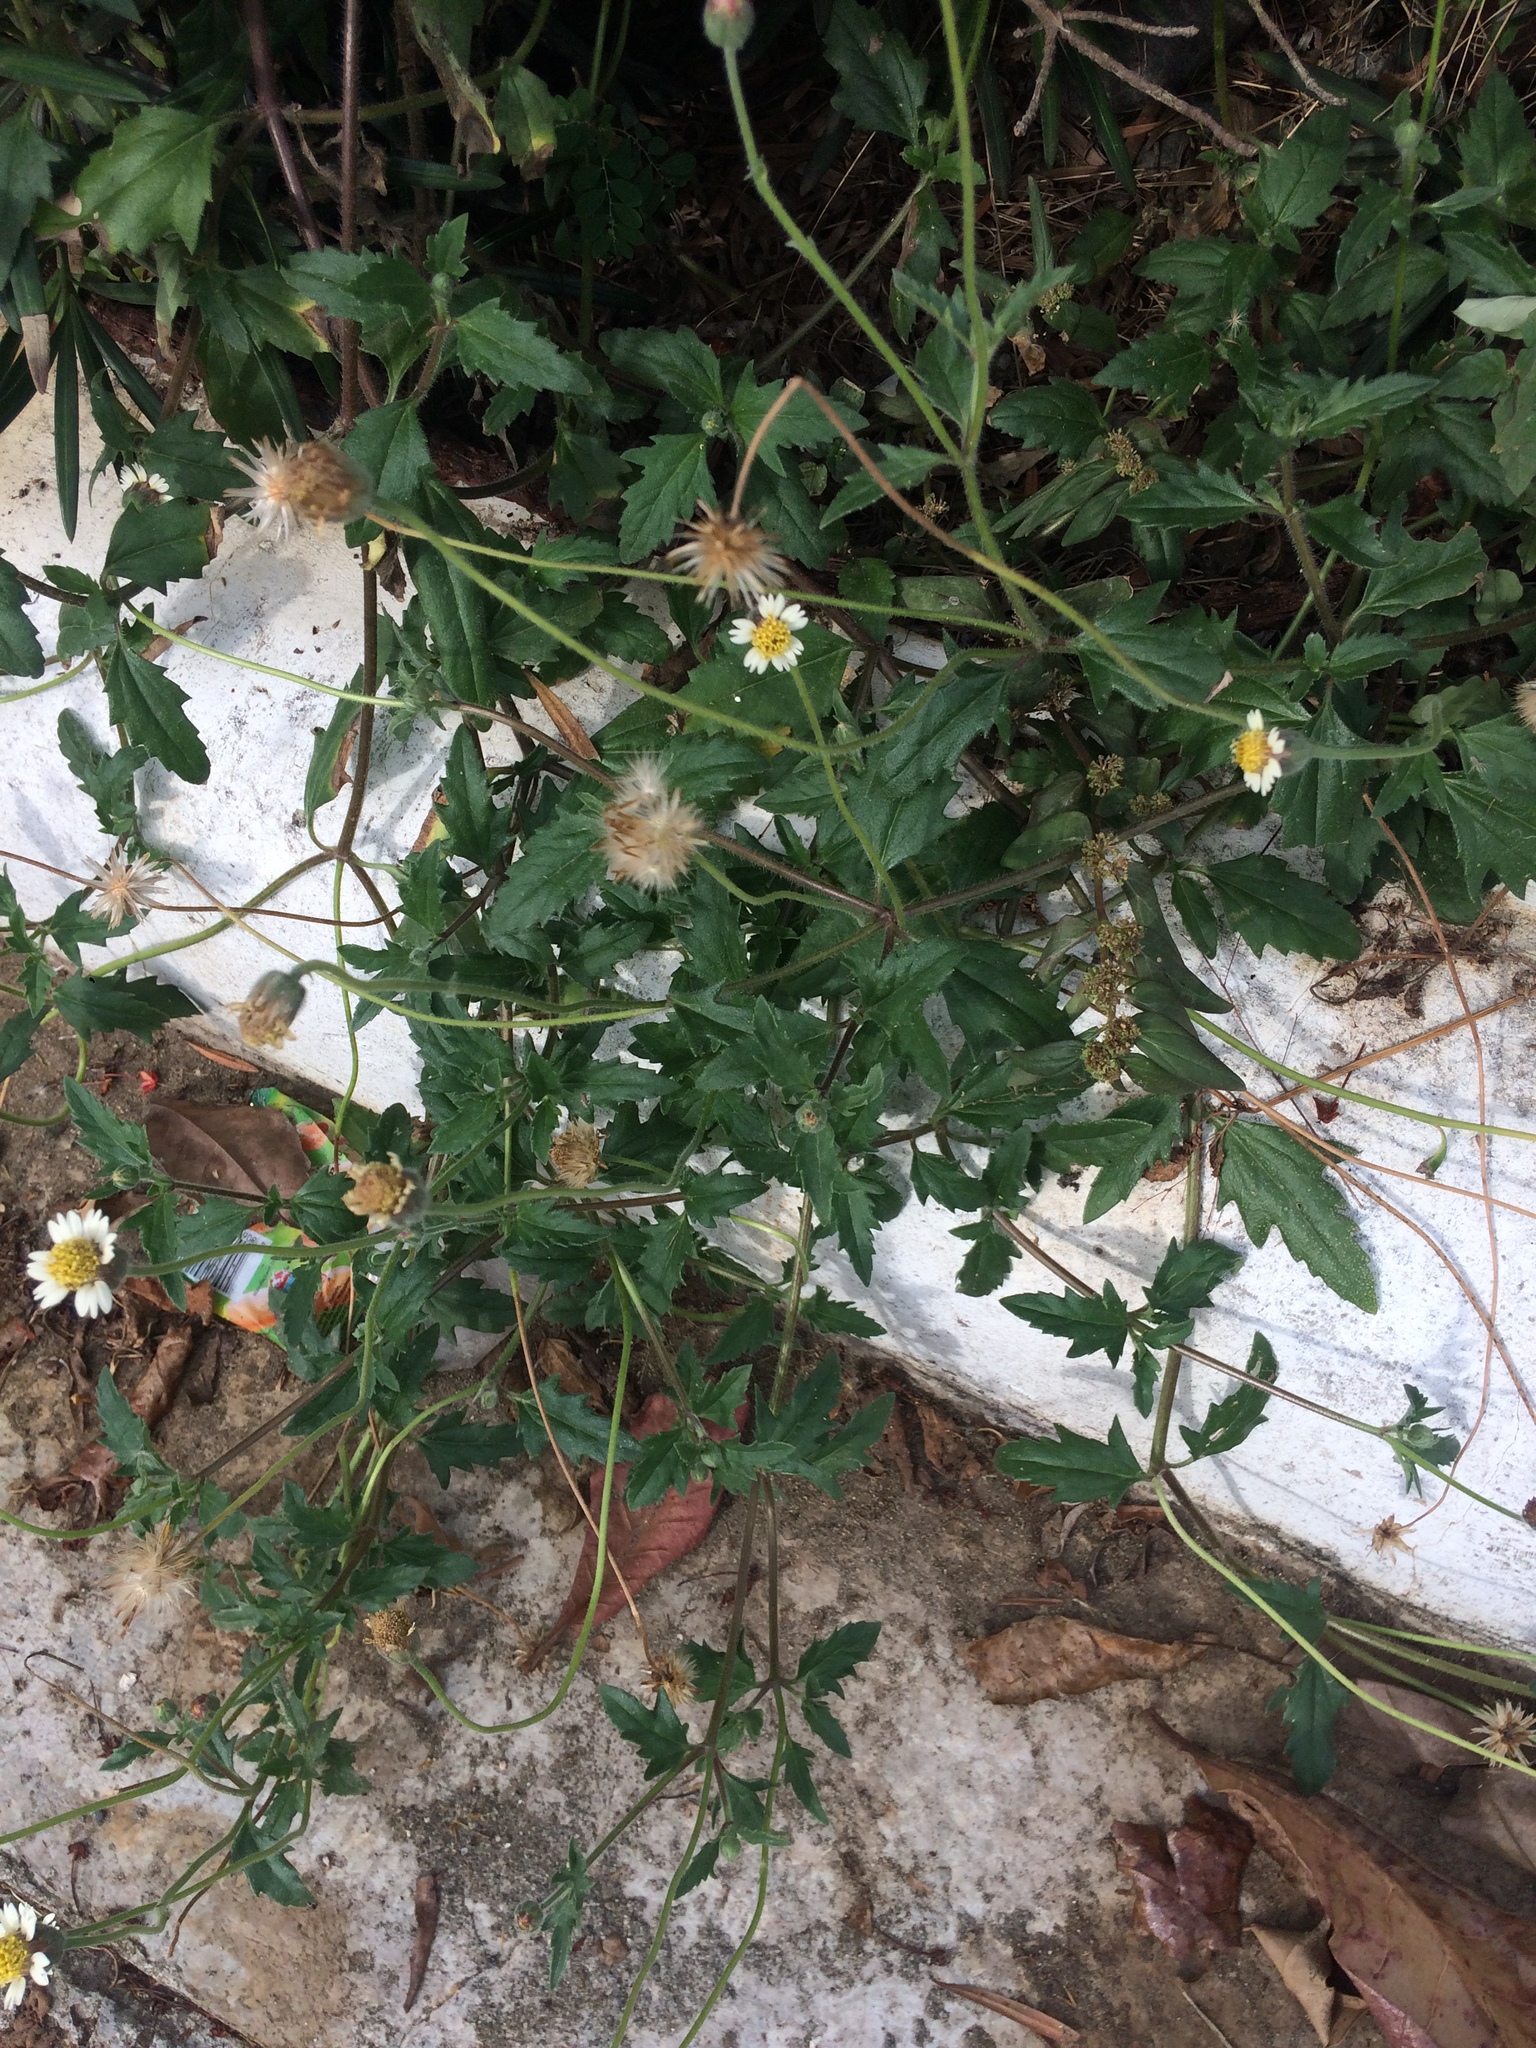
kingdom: Plantae
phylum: Tracheophyta
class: Magnoliopsida
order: Asterales
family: Asteraceae
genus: Tridax
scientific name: Tridax procumbens
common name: Coatbuttons
